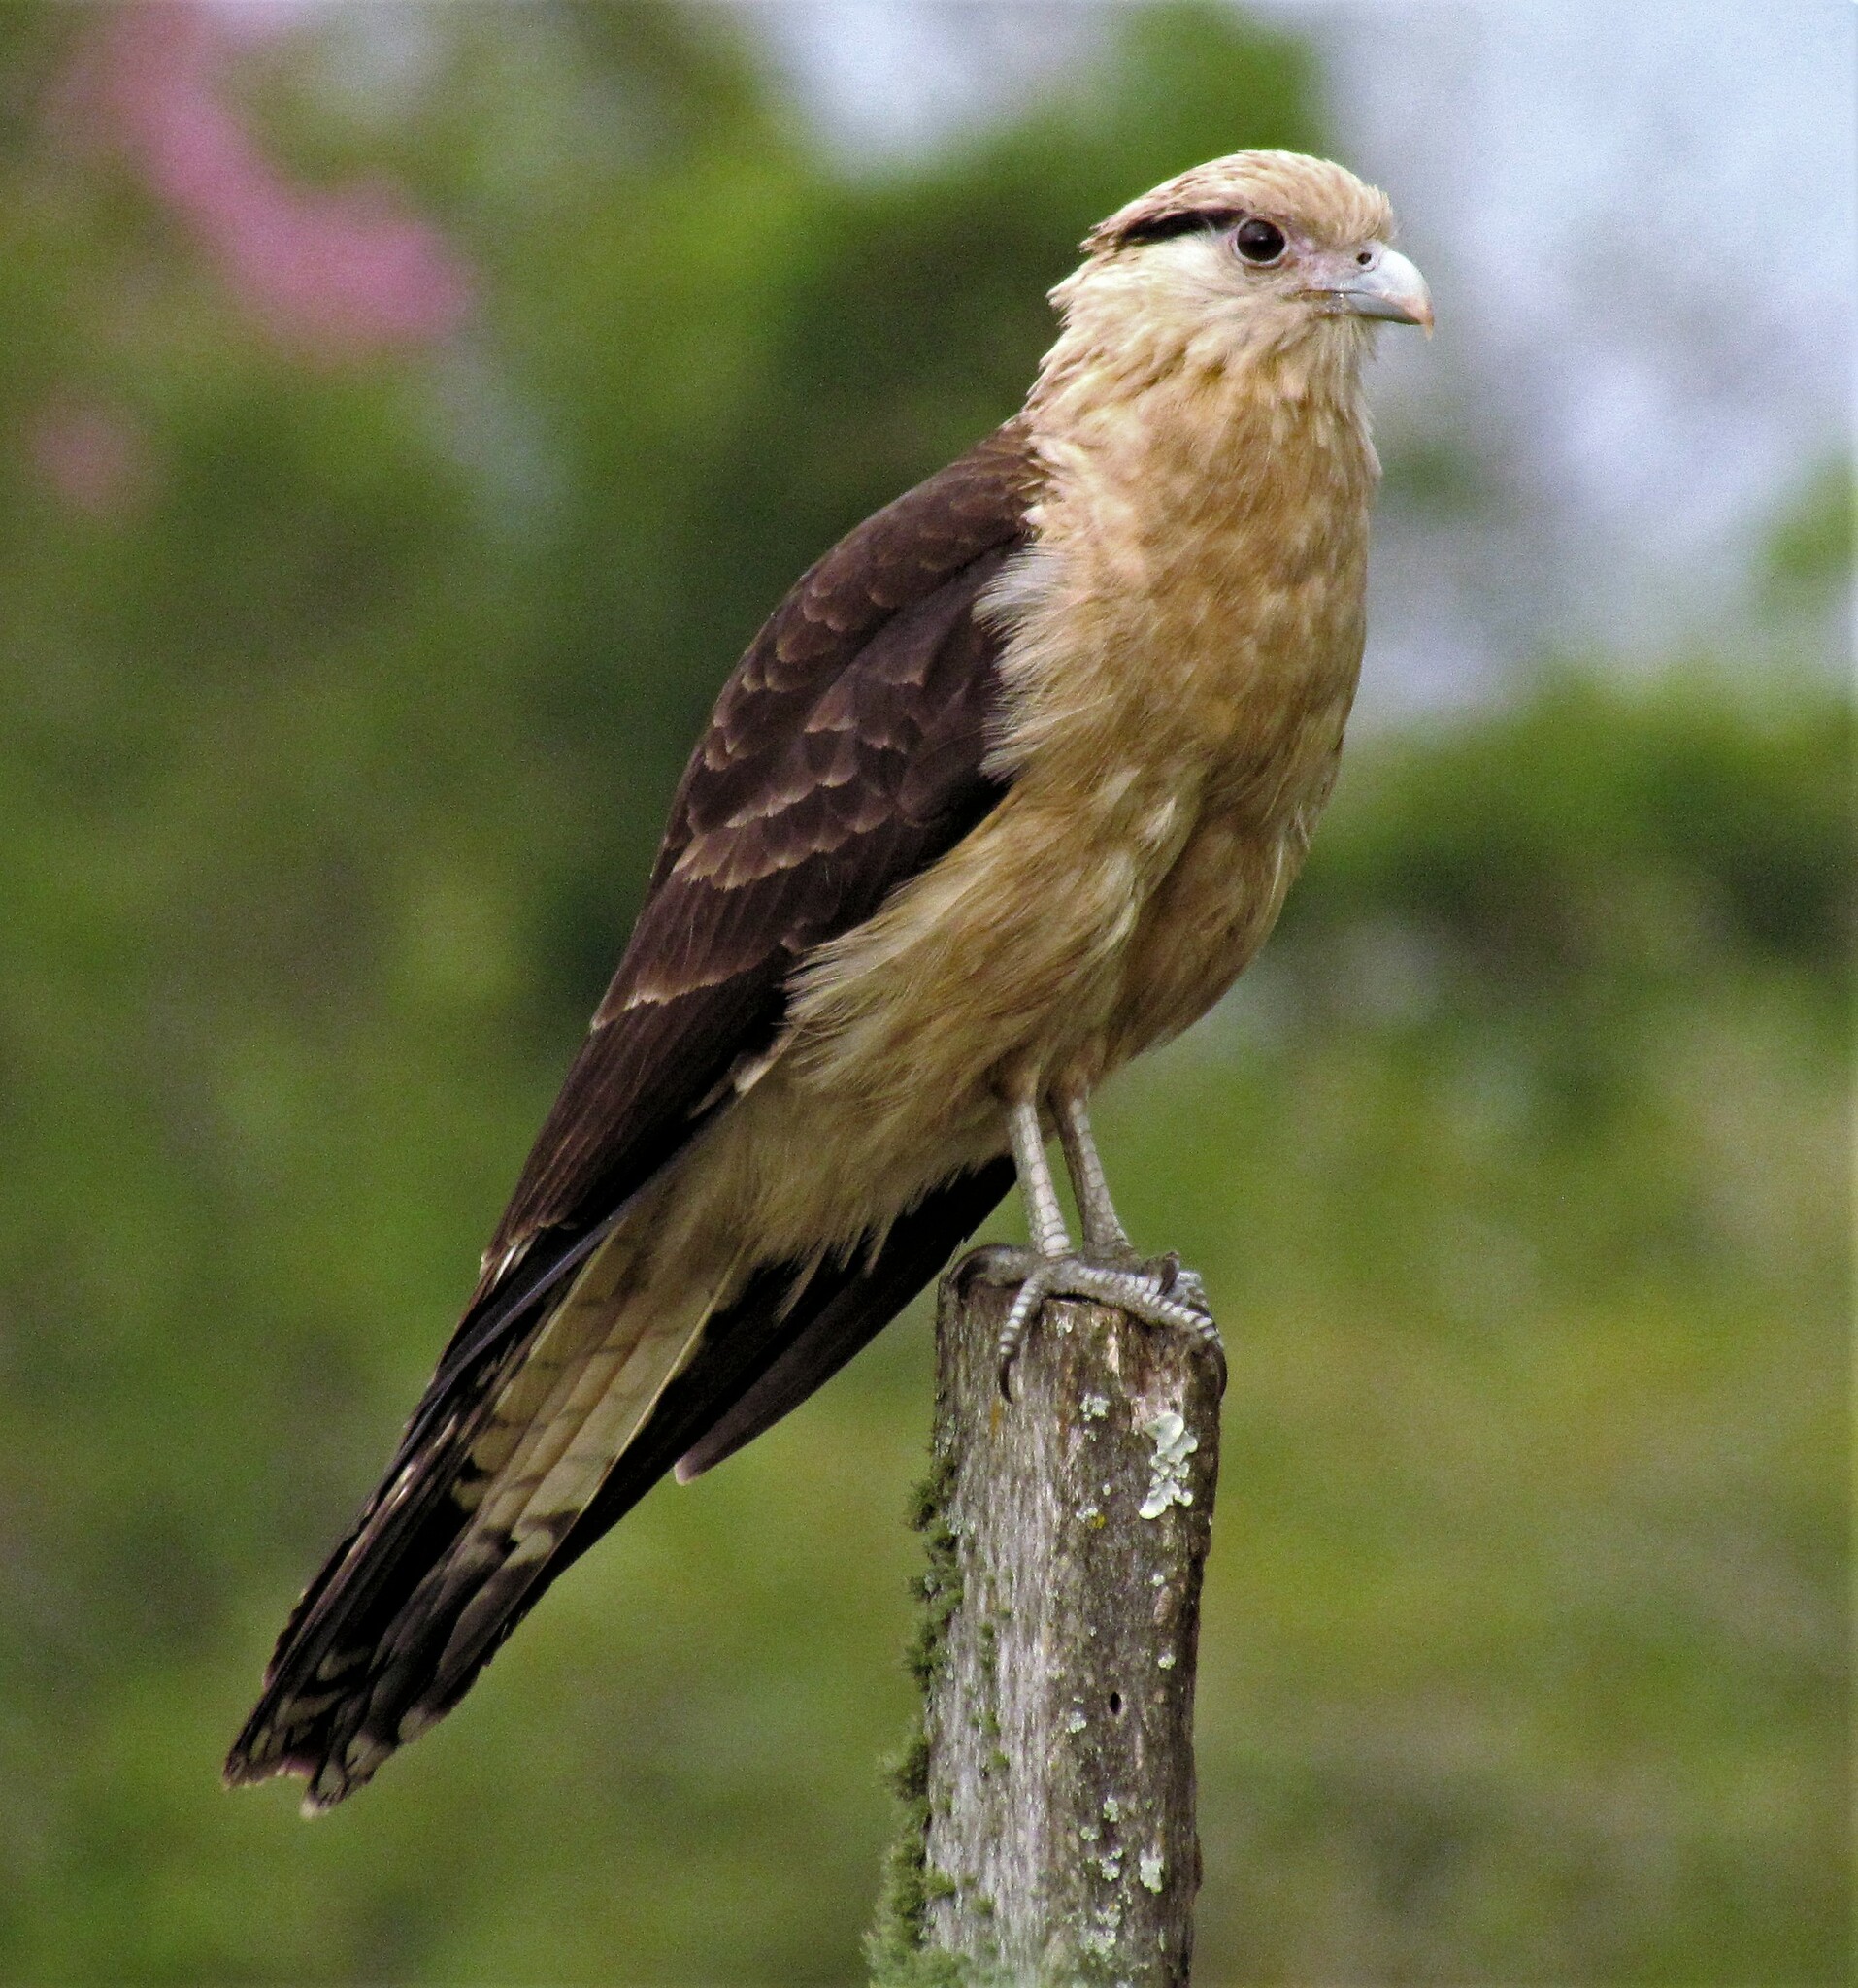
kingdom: Animalia
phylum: Chordata
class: Aves
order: Falconiformes
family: Falconidae
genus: Daptrius
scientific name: Daptrius
